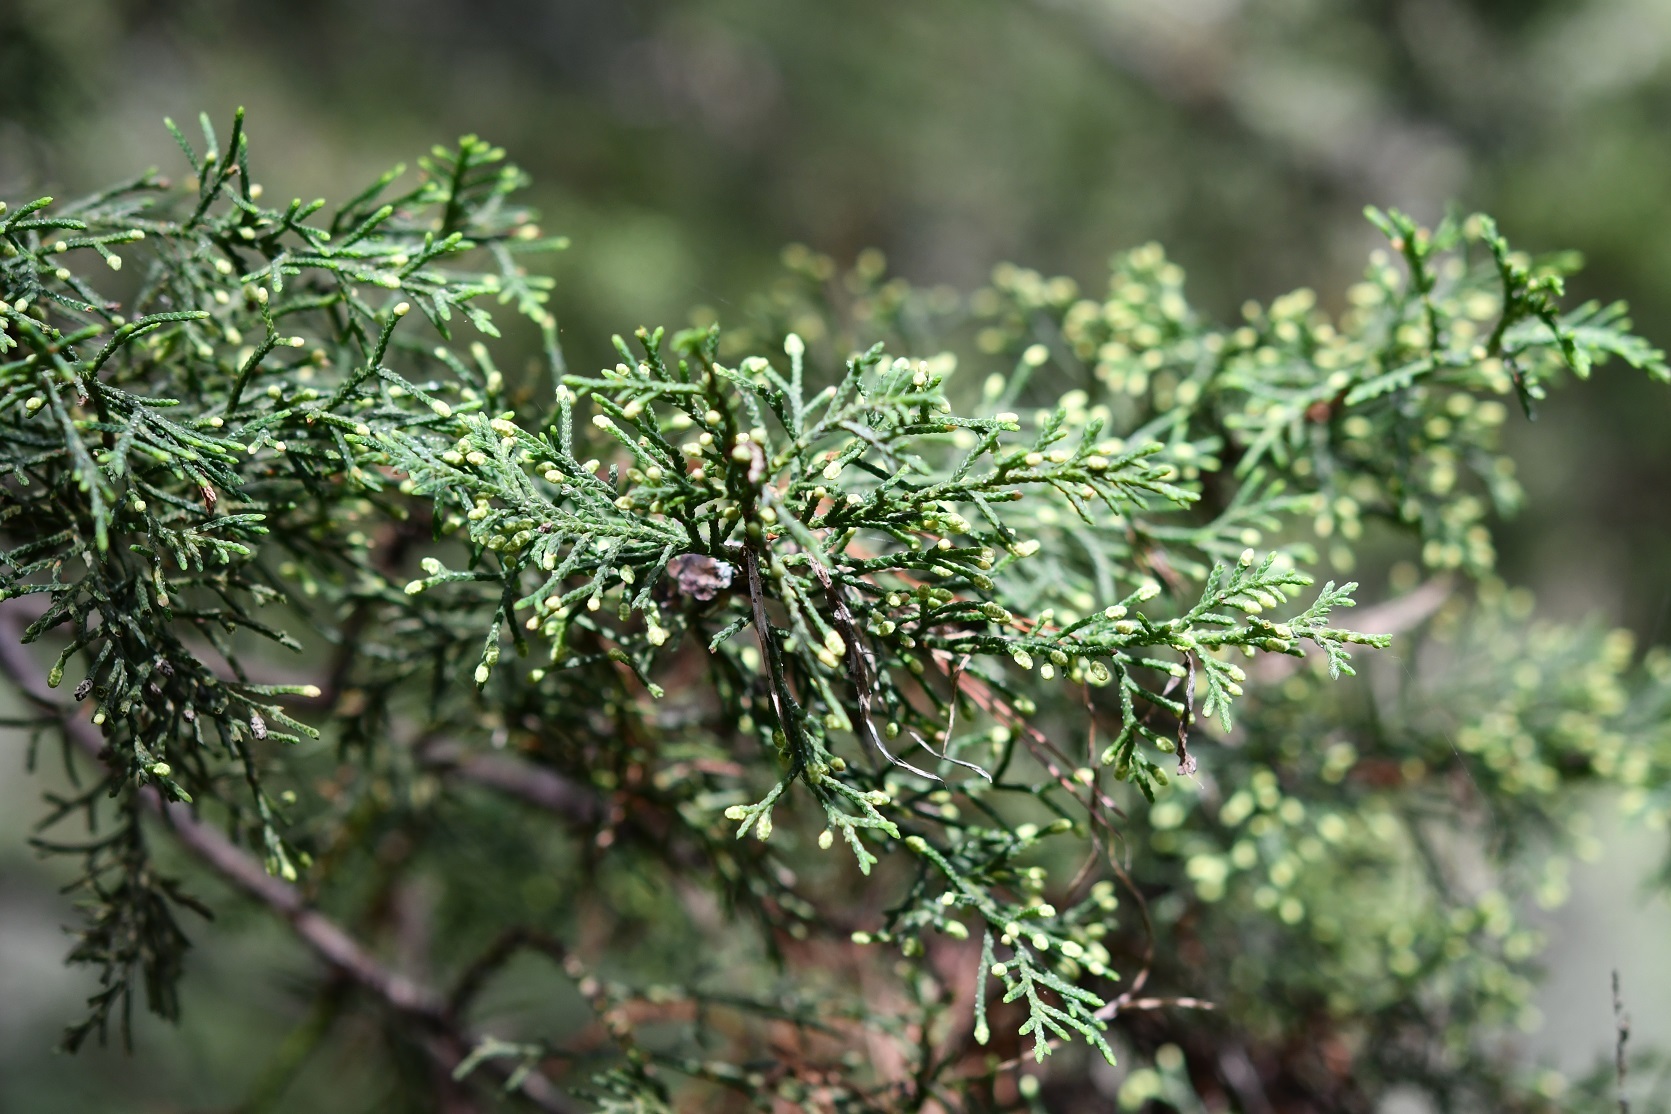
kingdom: Plantae
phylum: Tracheophyta
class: Pinopsida
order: Pinales
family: Cupressaceae
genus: Cupressus
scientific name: Cupressus lusitanica
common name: Mexican cypress
